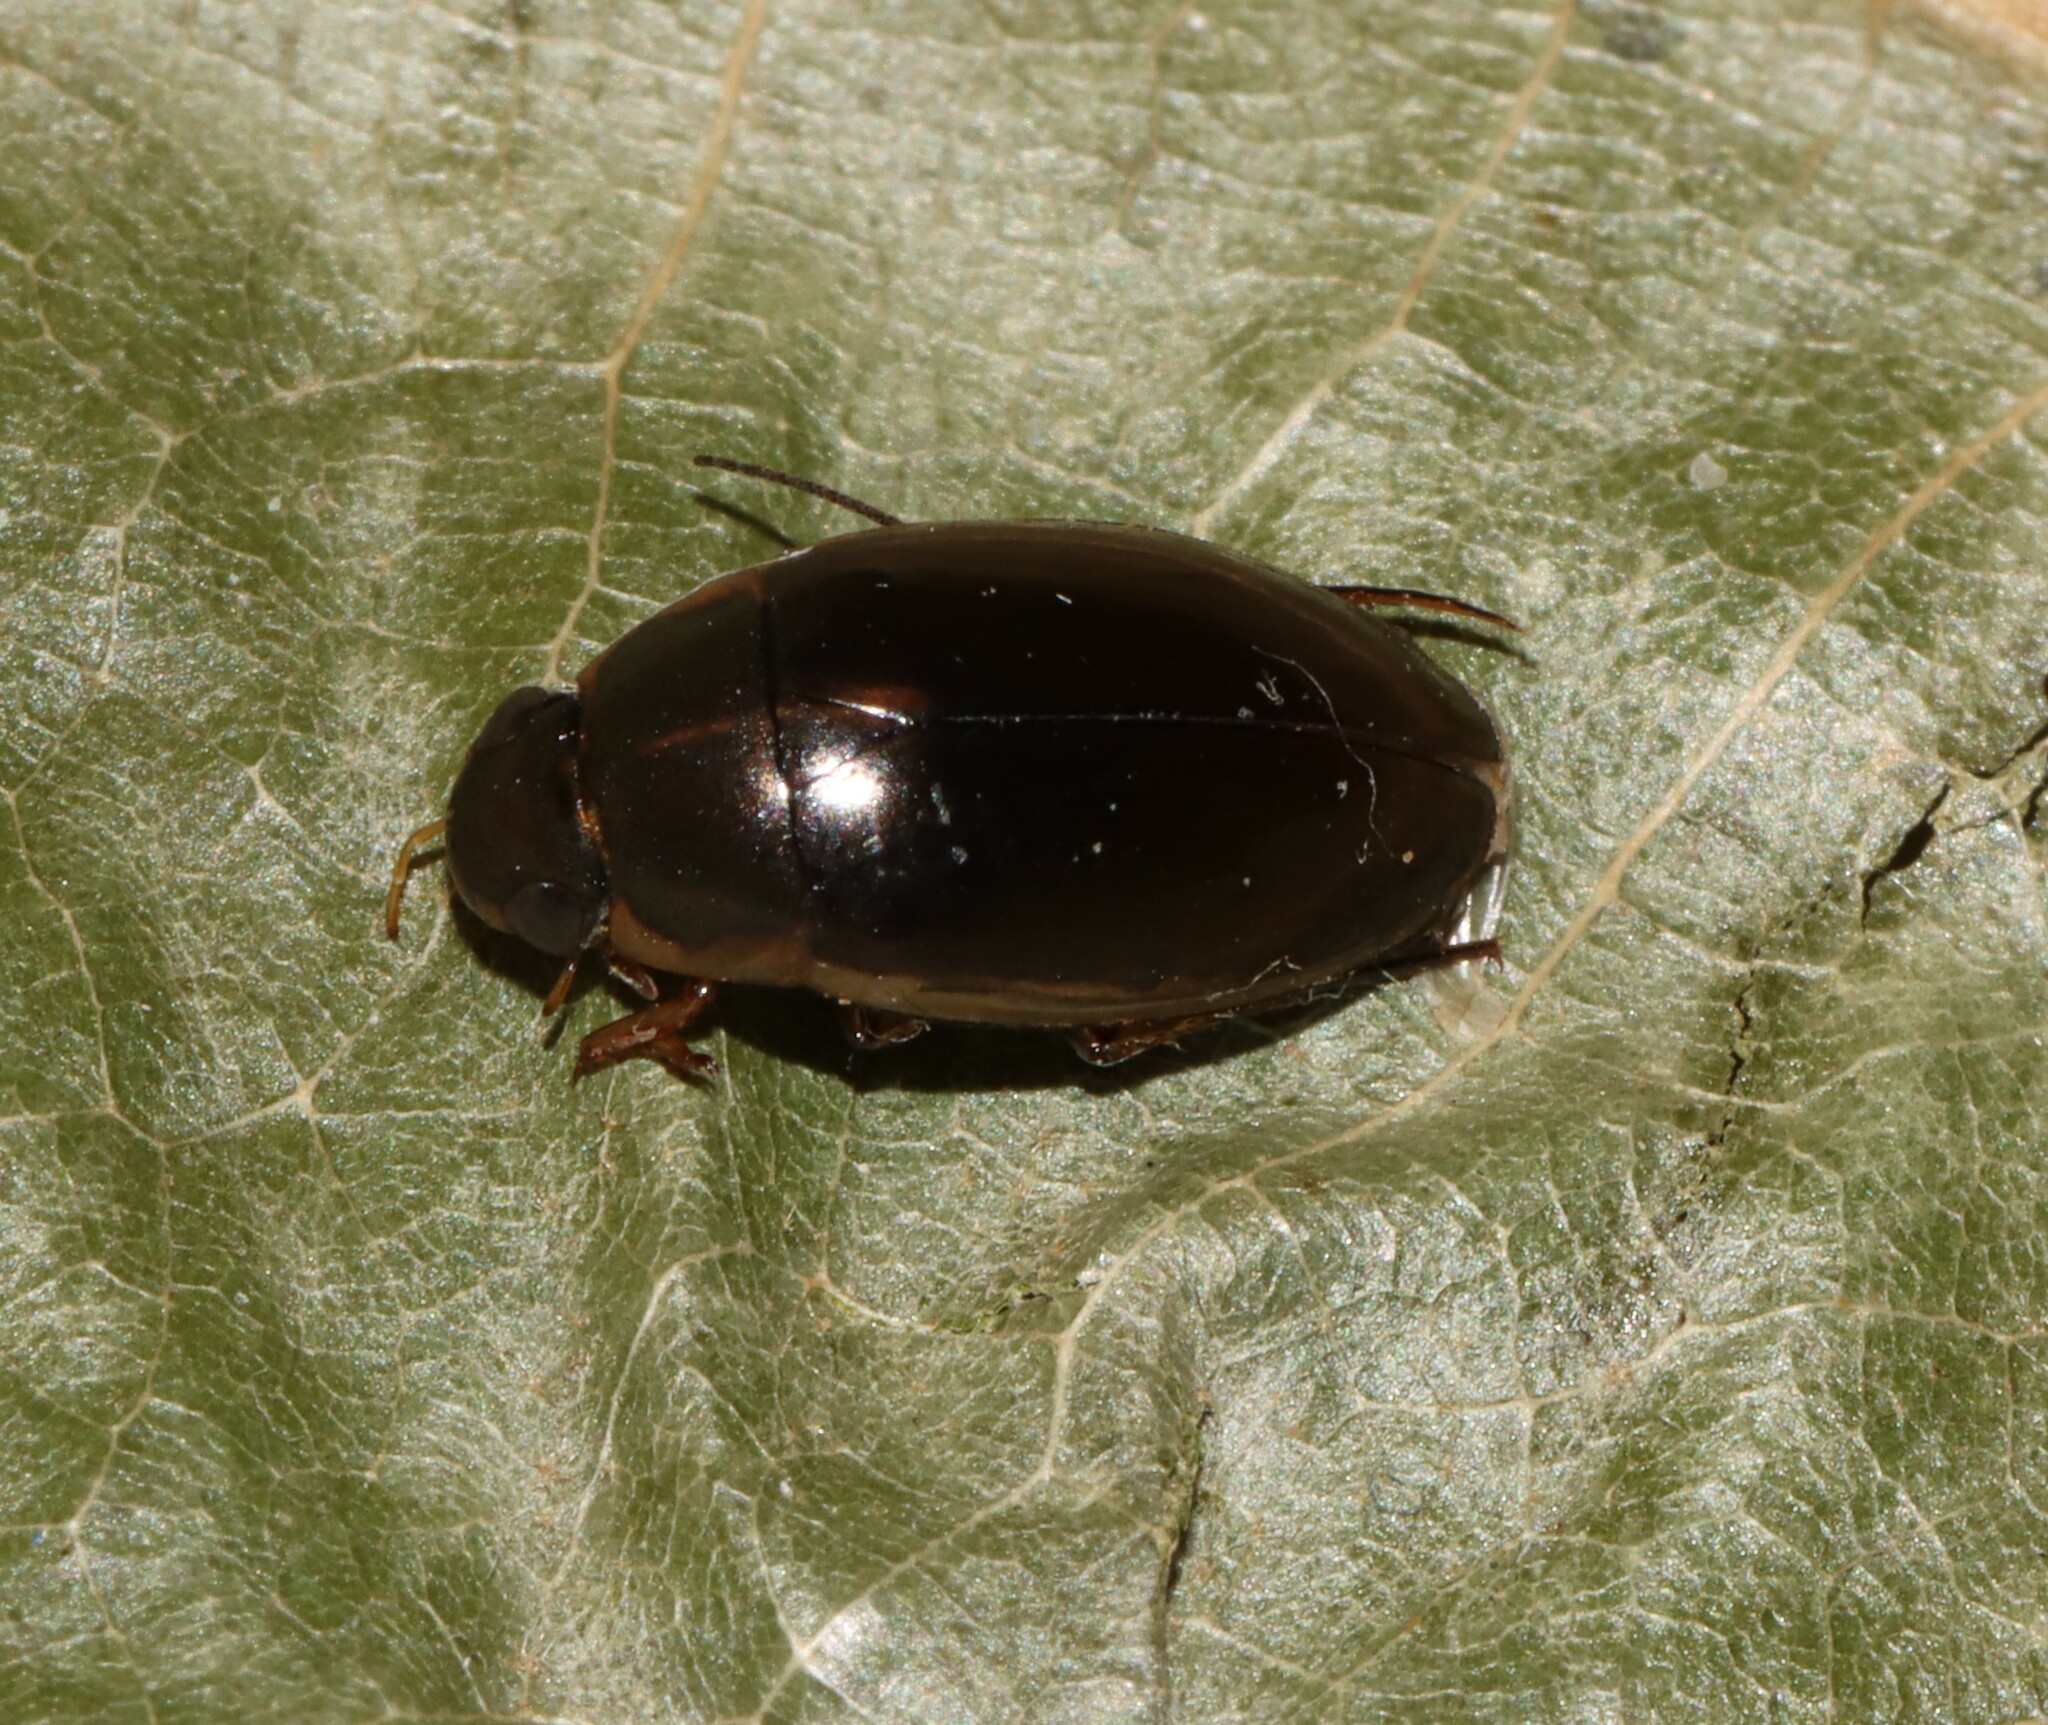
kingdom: Animalia
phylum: Arthropoda
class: Insecta
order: Coleoptera
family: Hydrophilidae
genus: Tropisternus
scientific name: Tropisternus lateralis
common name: Lateral-banded water scavenger beetle
